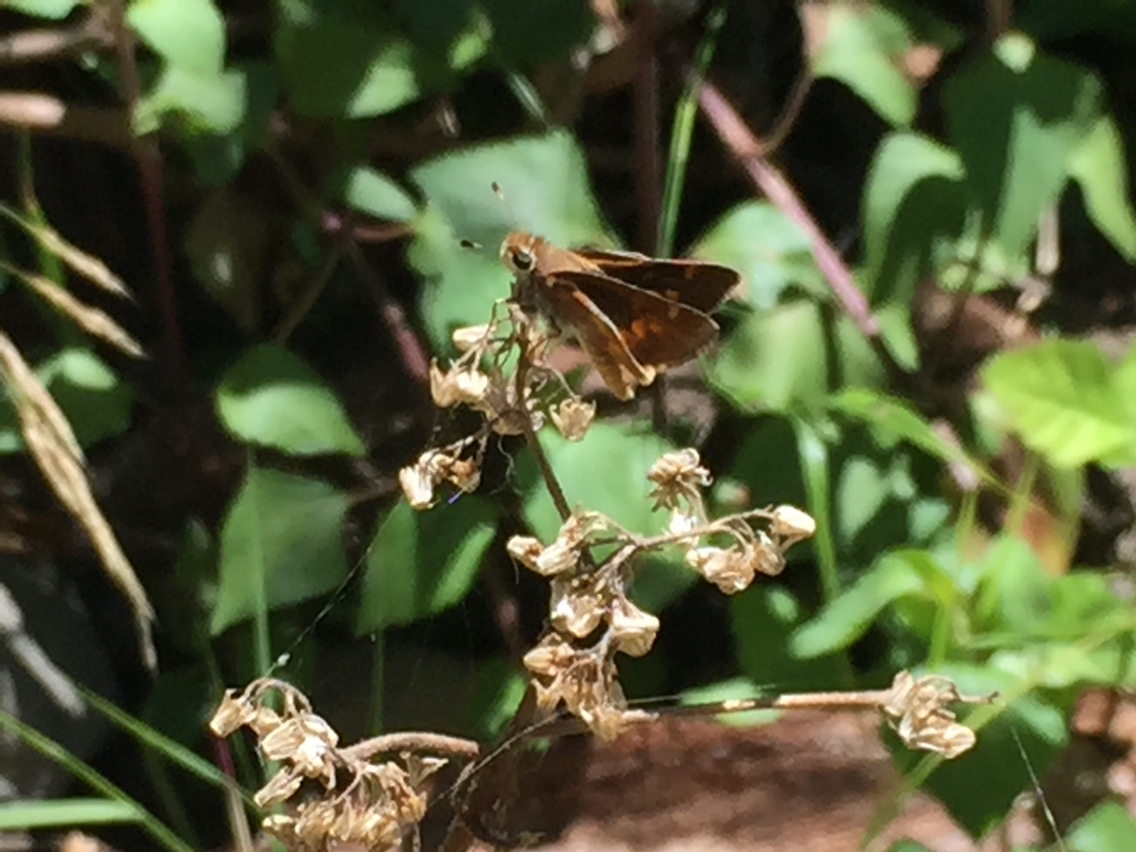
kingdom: Animalia
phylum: Arthropoda
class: Insecta
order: Lepidoptera
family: Hesperiidae
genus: Lon
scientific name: Lon melane
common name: Umber skipper
